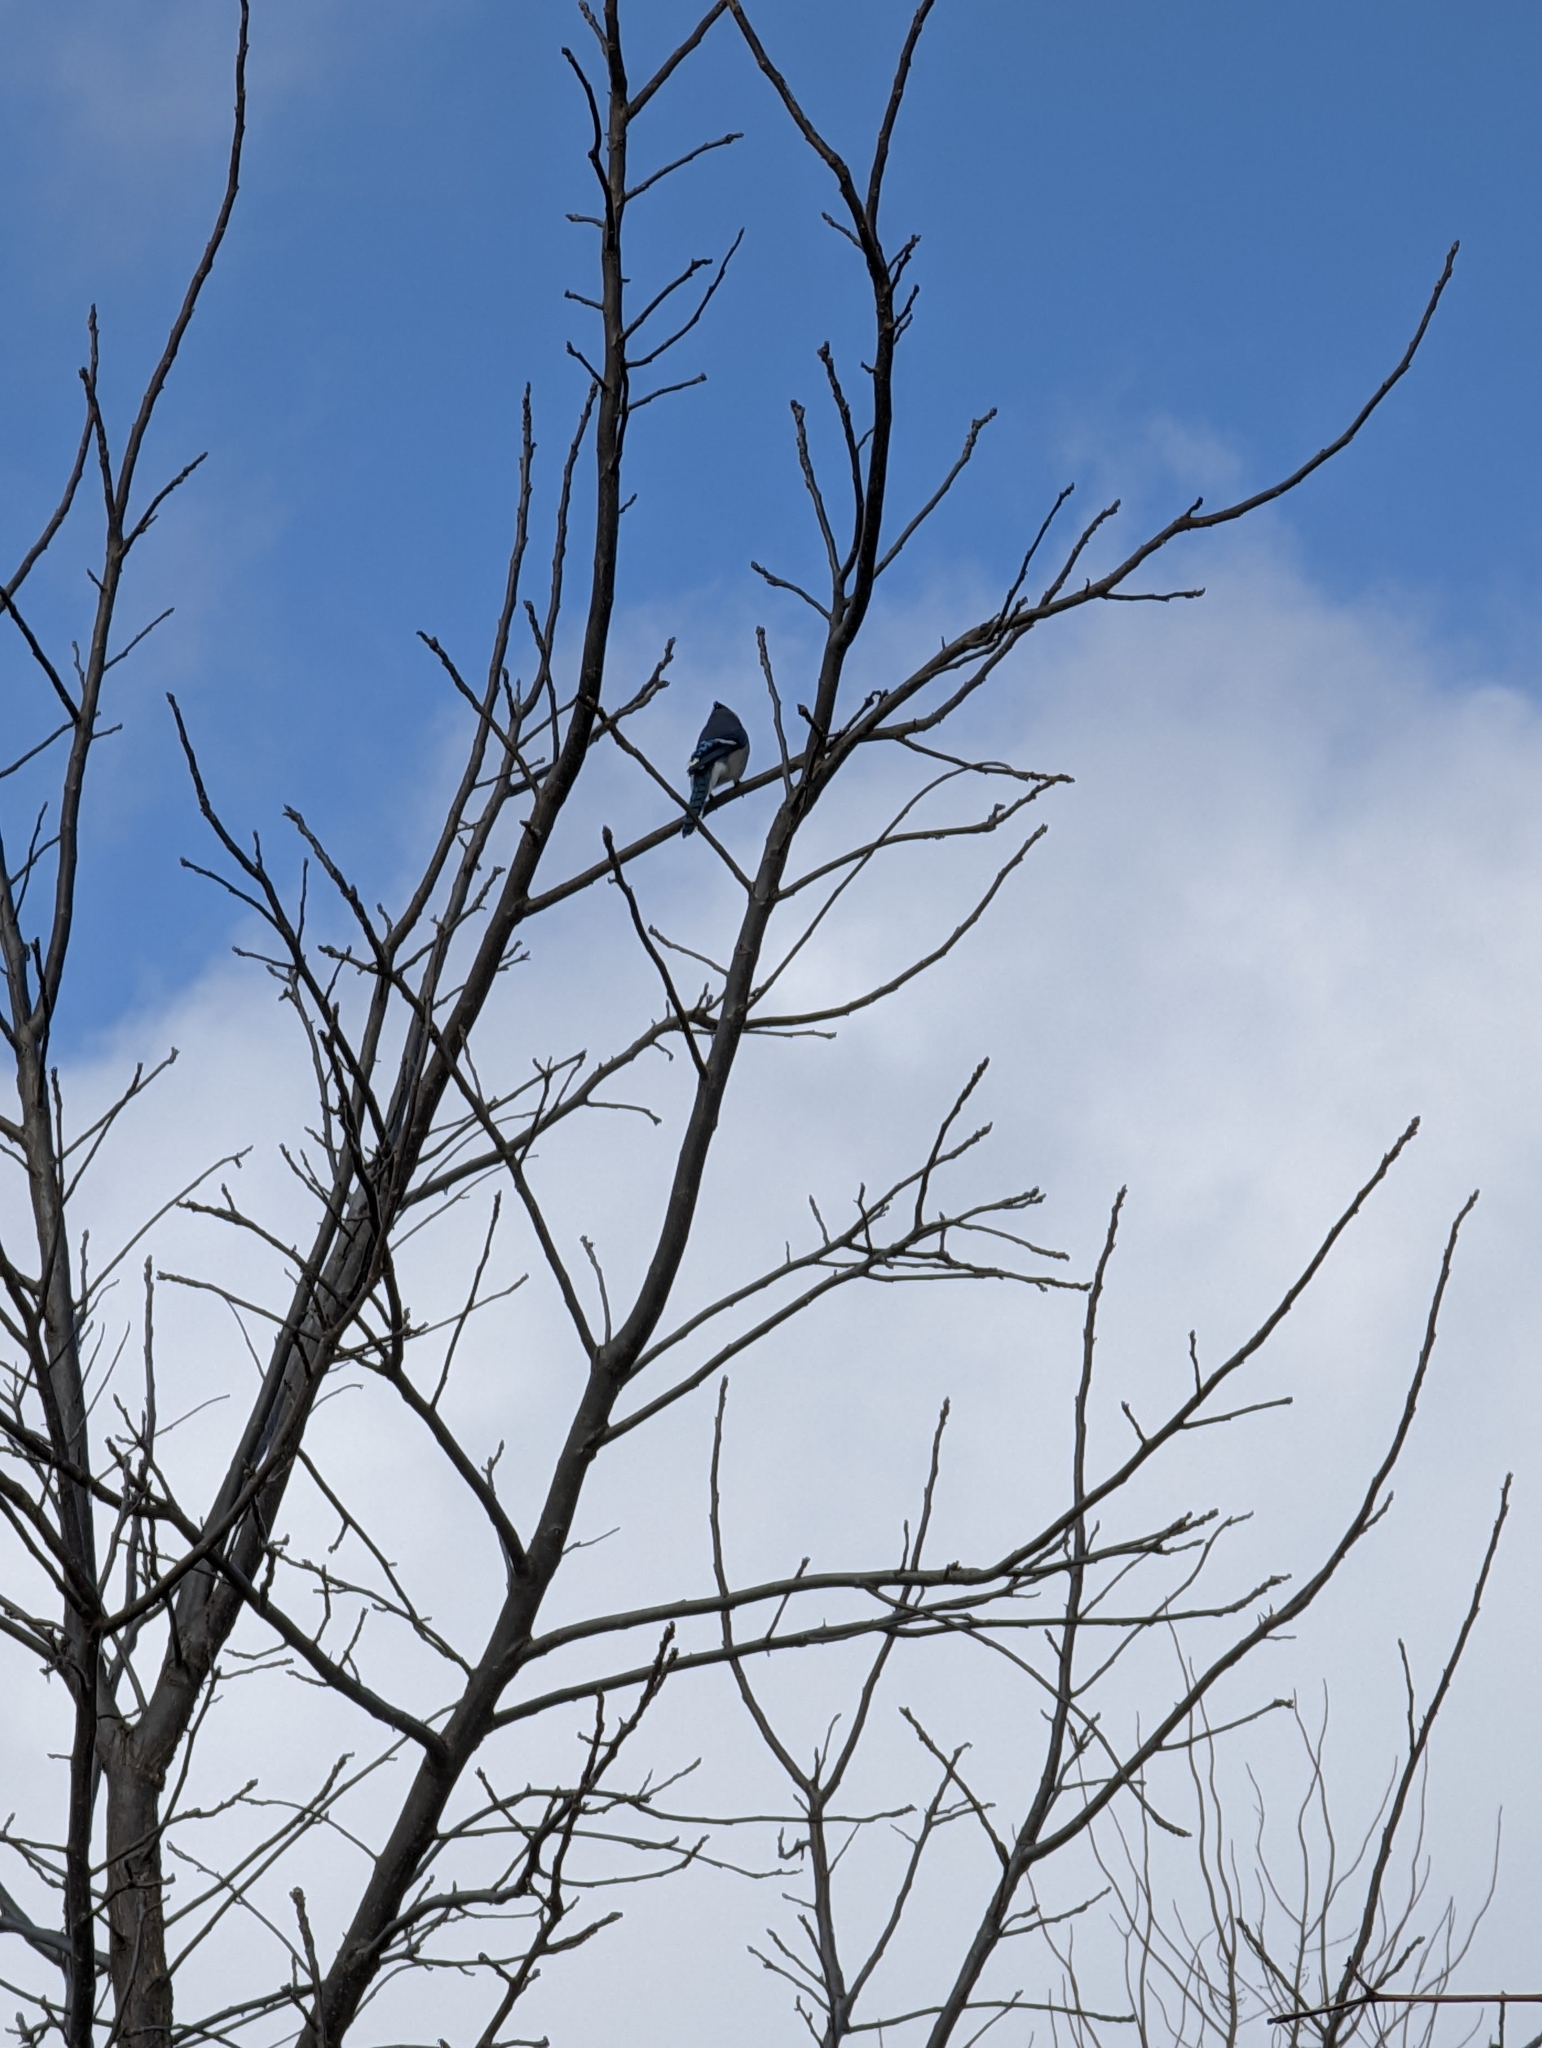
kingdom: Animalia
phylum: Chordata
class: Aves
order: Passeriformes
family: Corvidae
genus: Cyanocitta
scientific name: Cyanocitta cristata
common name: Blue jay
